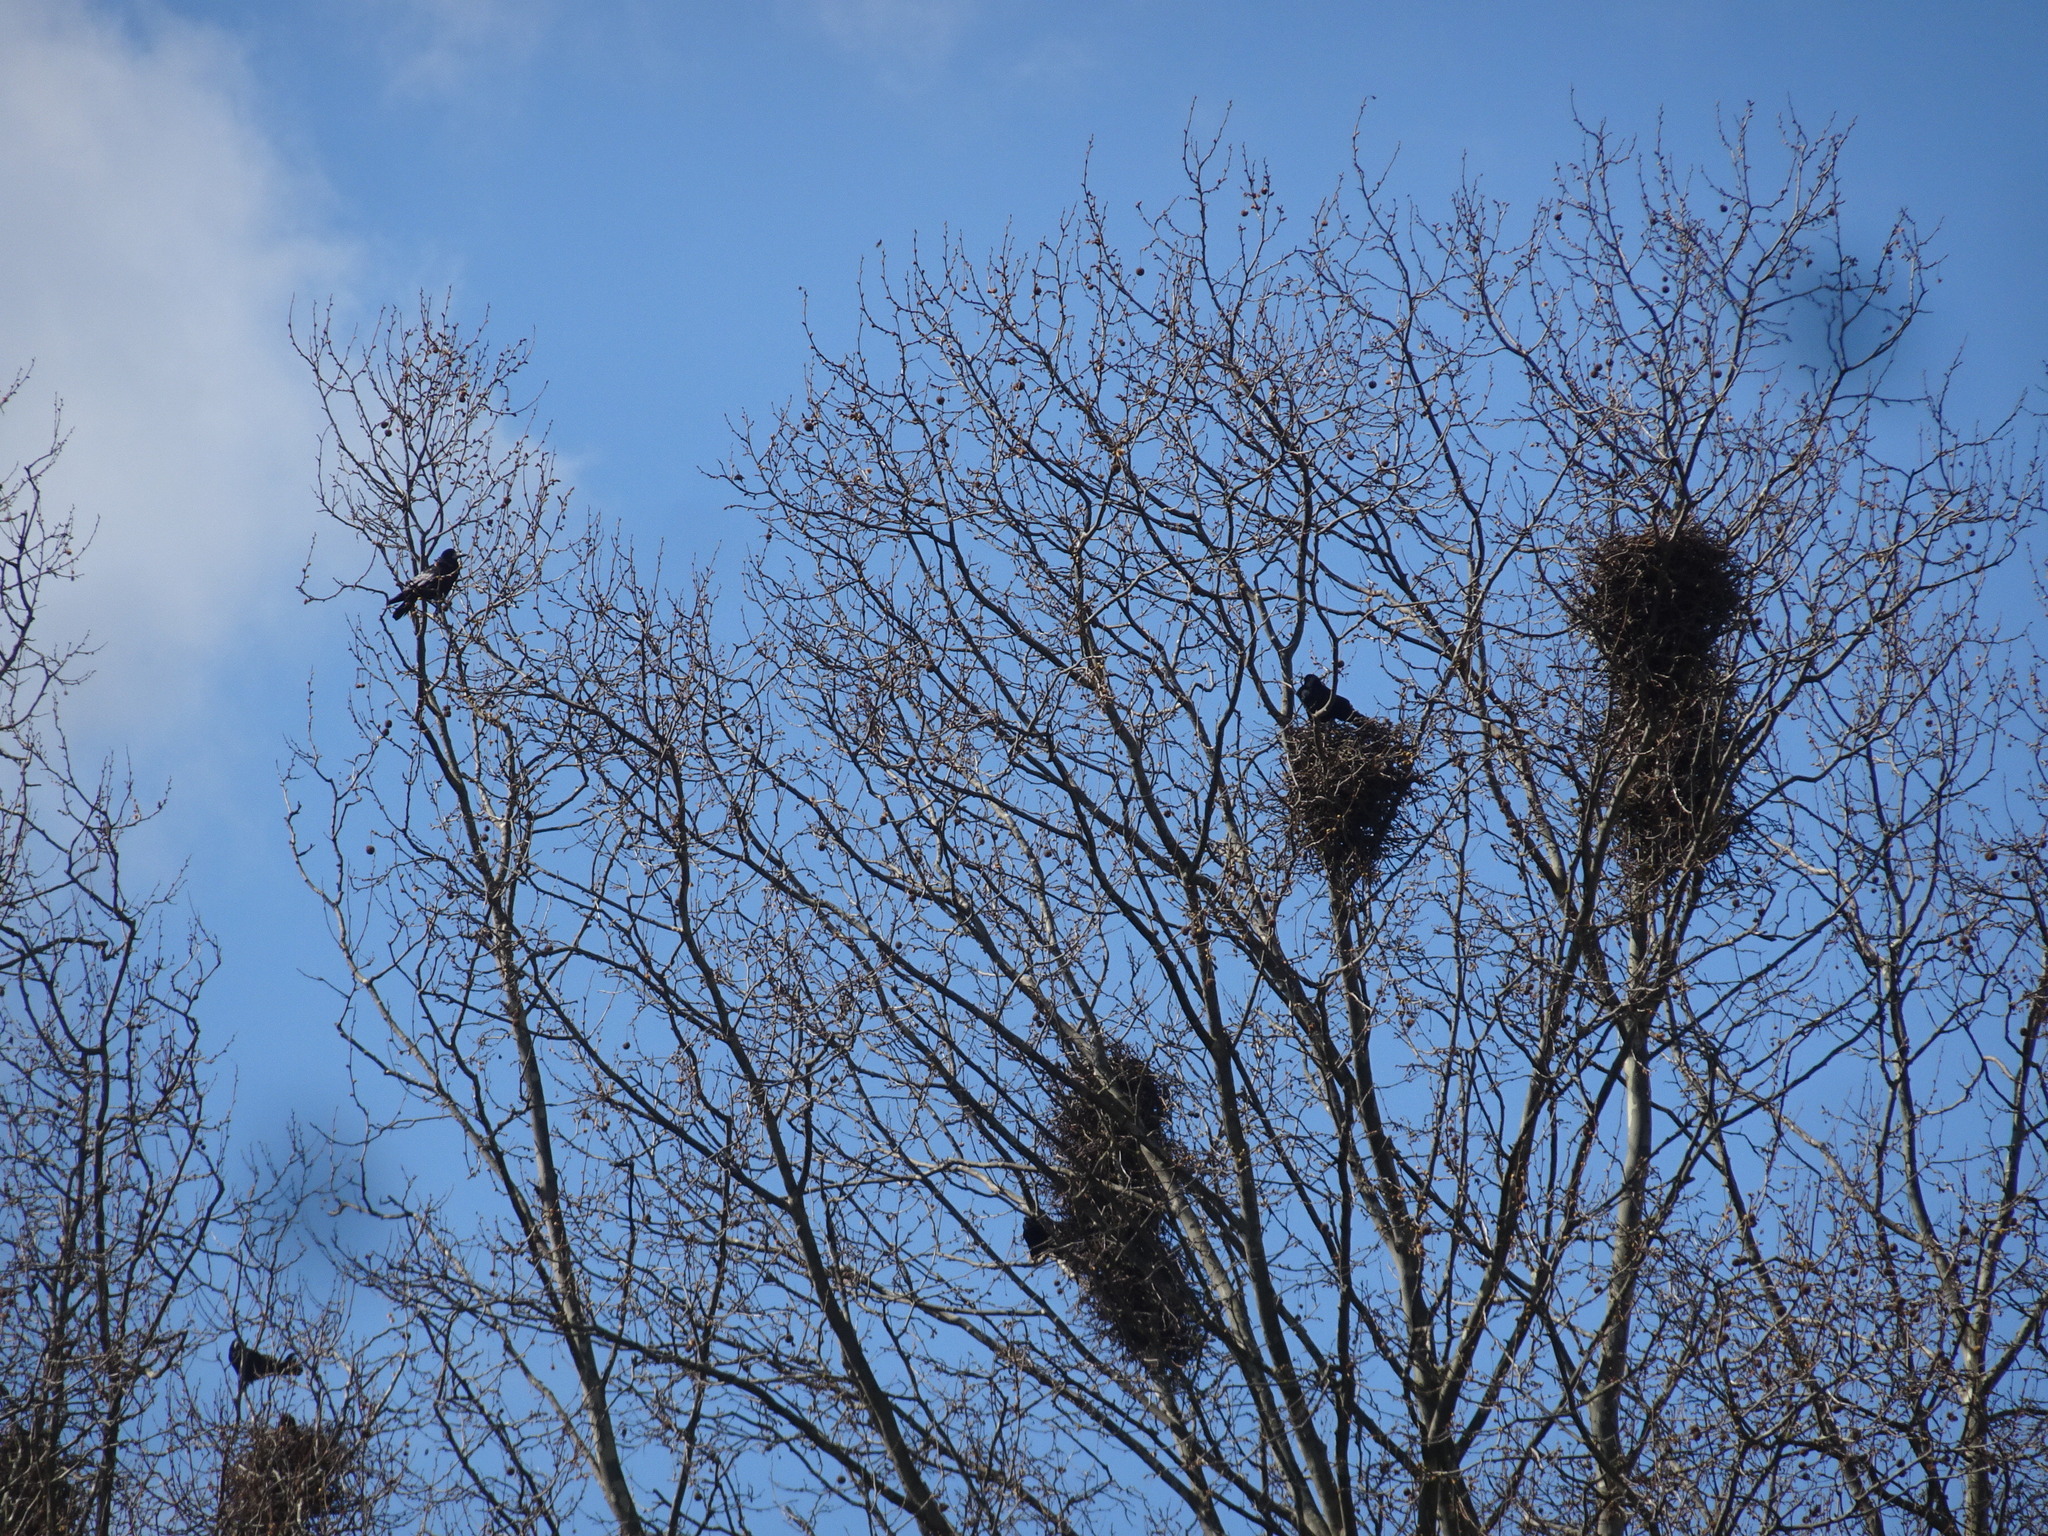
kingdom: Animalia
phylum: Chordata
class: Aves
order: Passeriformes
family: Corvidae
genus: Corvus
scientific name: Corvus frugilegus
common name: Rook
